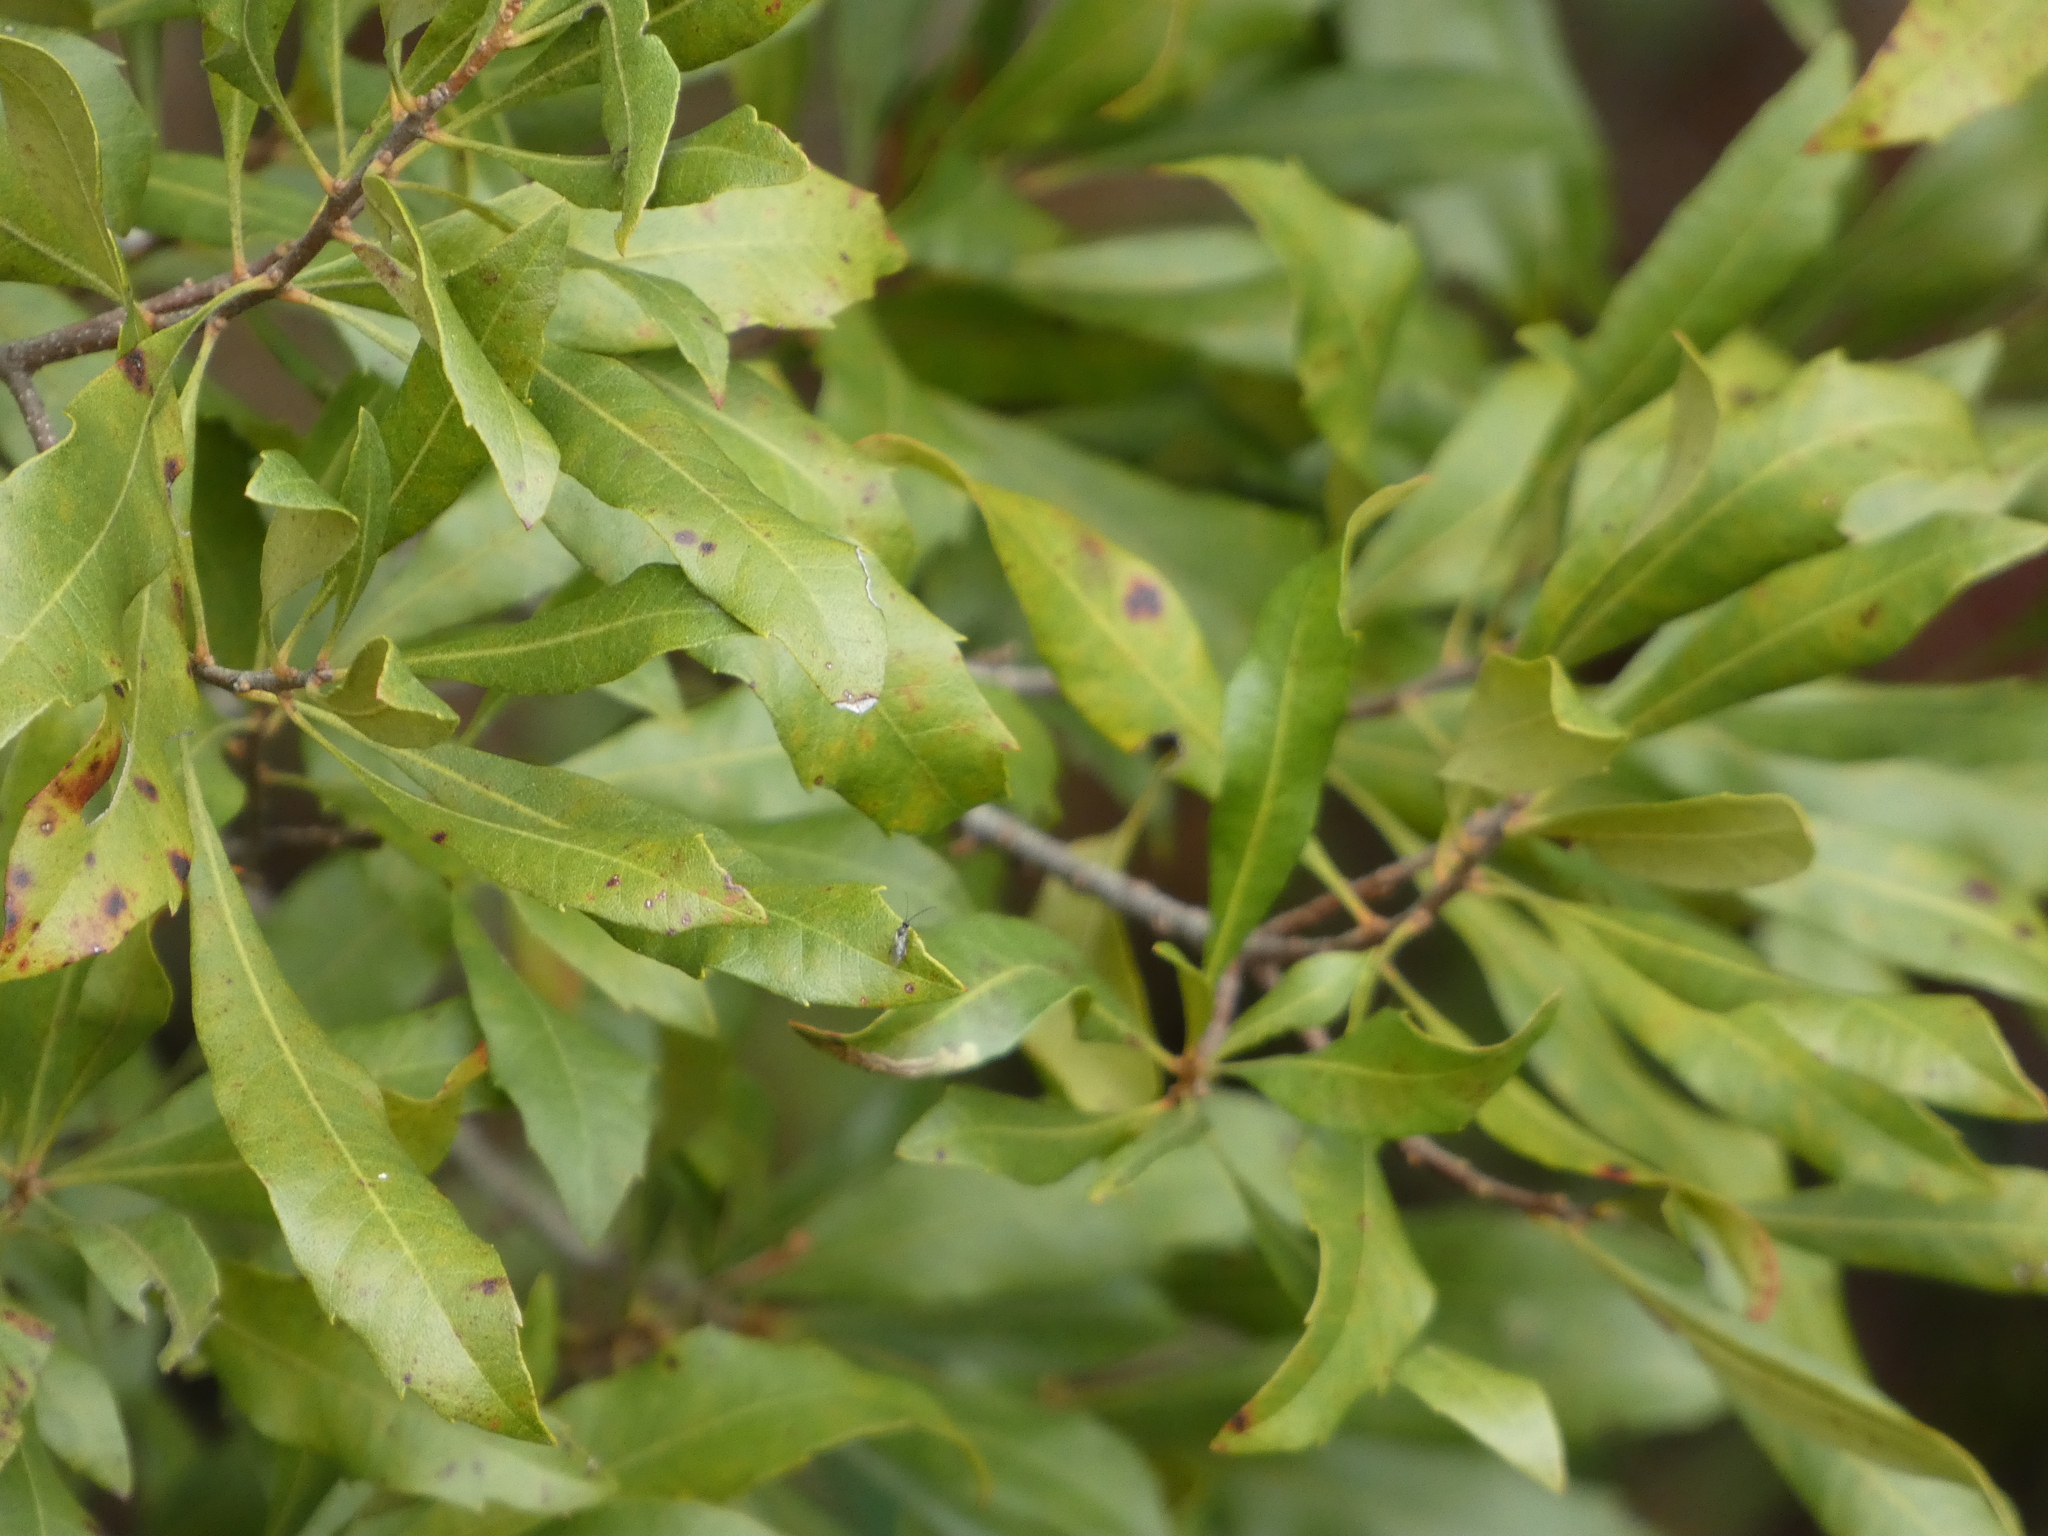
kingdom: Plantae
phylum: Tracheophyta
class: Magnoliopsida
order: Fagales
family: Myricaceae
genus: Morella
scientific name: Morella cerifera
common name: Wax myrtle
